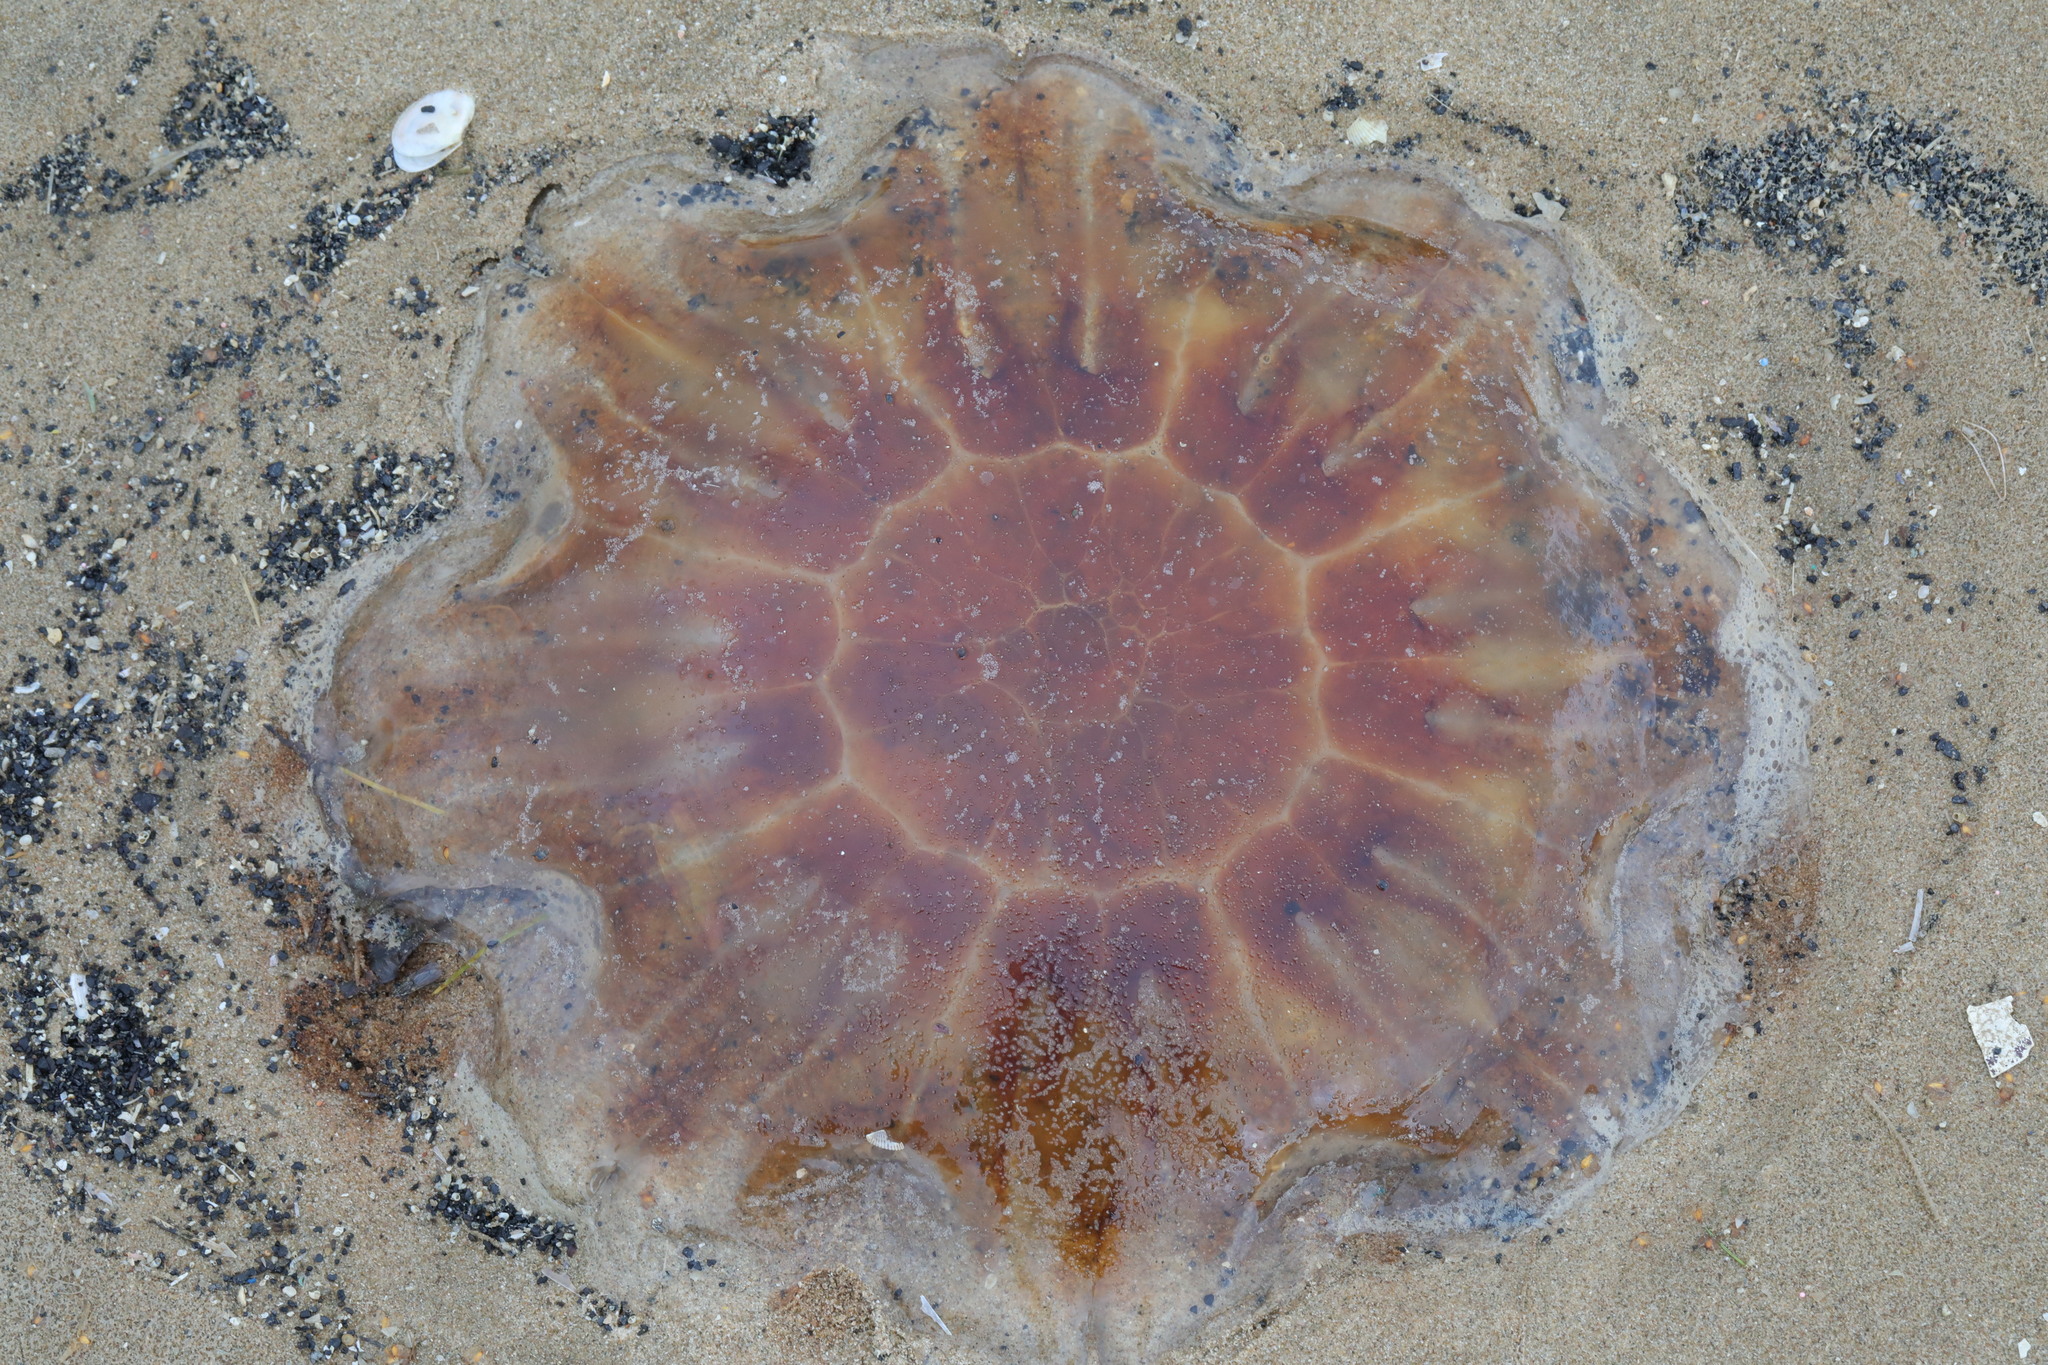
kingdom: Animalia
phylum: Cnidaria
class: Scyphozoa
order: Semaeostomeae
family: Cyaneidae
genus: Cyanea
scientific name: Cyanea capillata
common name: Lion's mane jellyfish
